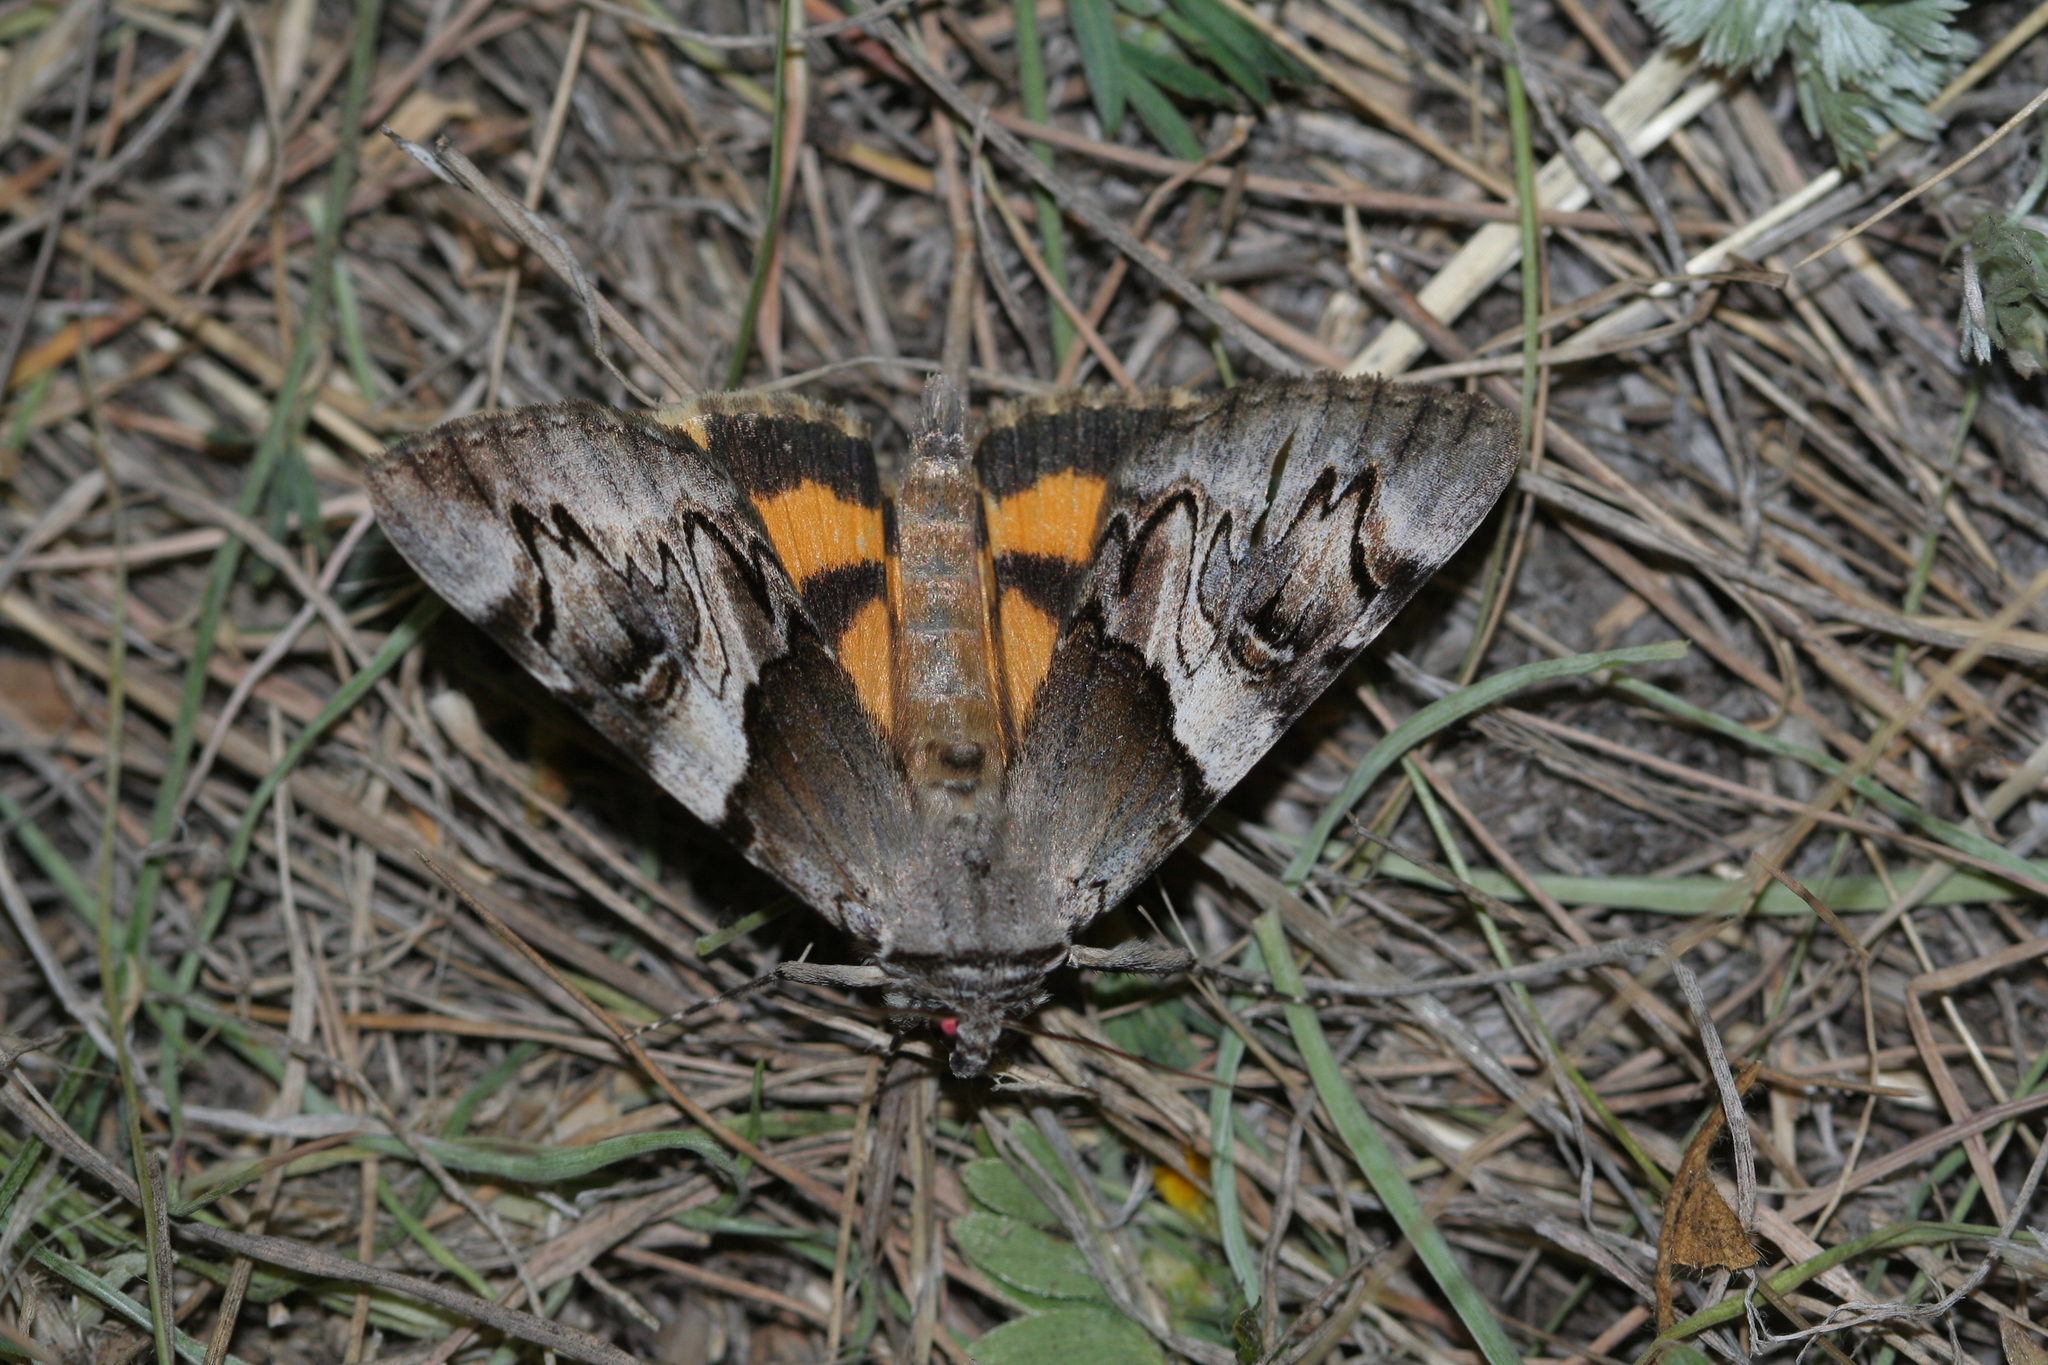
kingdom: Animalia
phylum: Arthropoda
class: Insecta
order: Lepidoptera
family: Erebidae
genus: Catocala
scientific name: Catocala fulminea
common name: Yellow bands underwing
